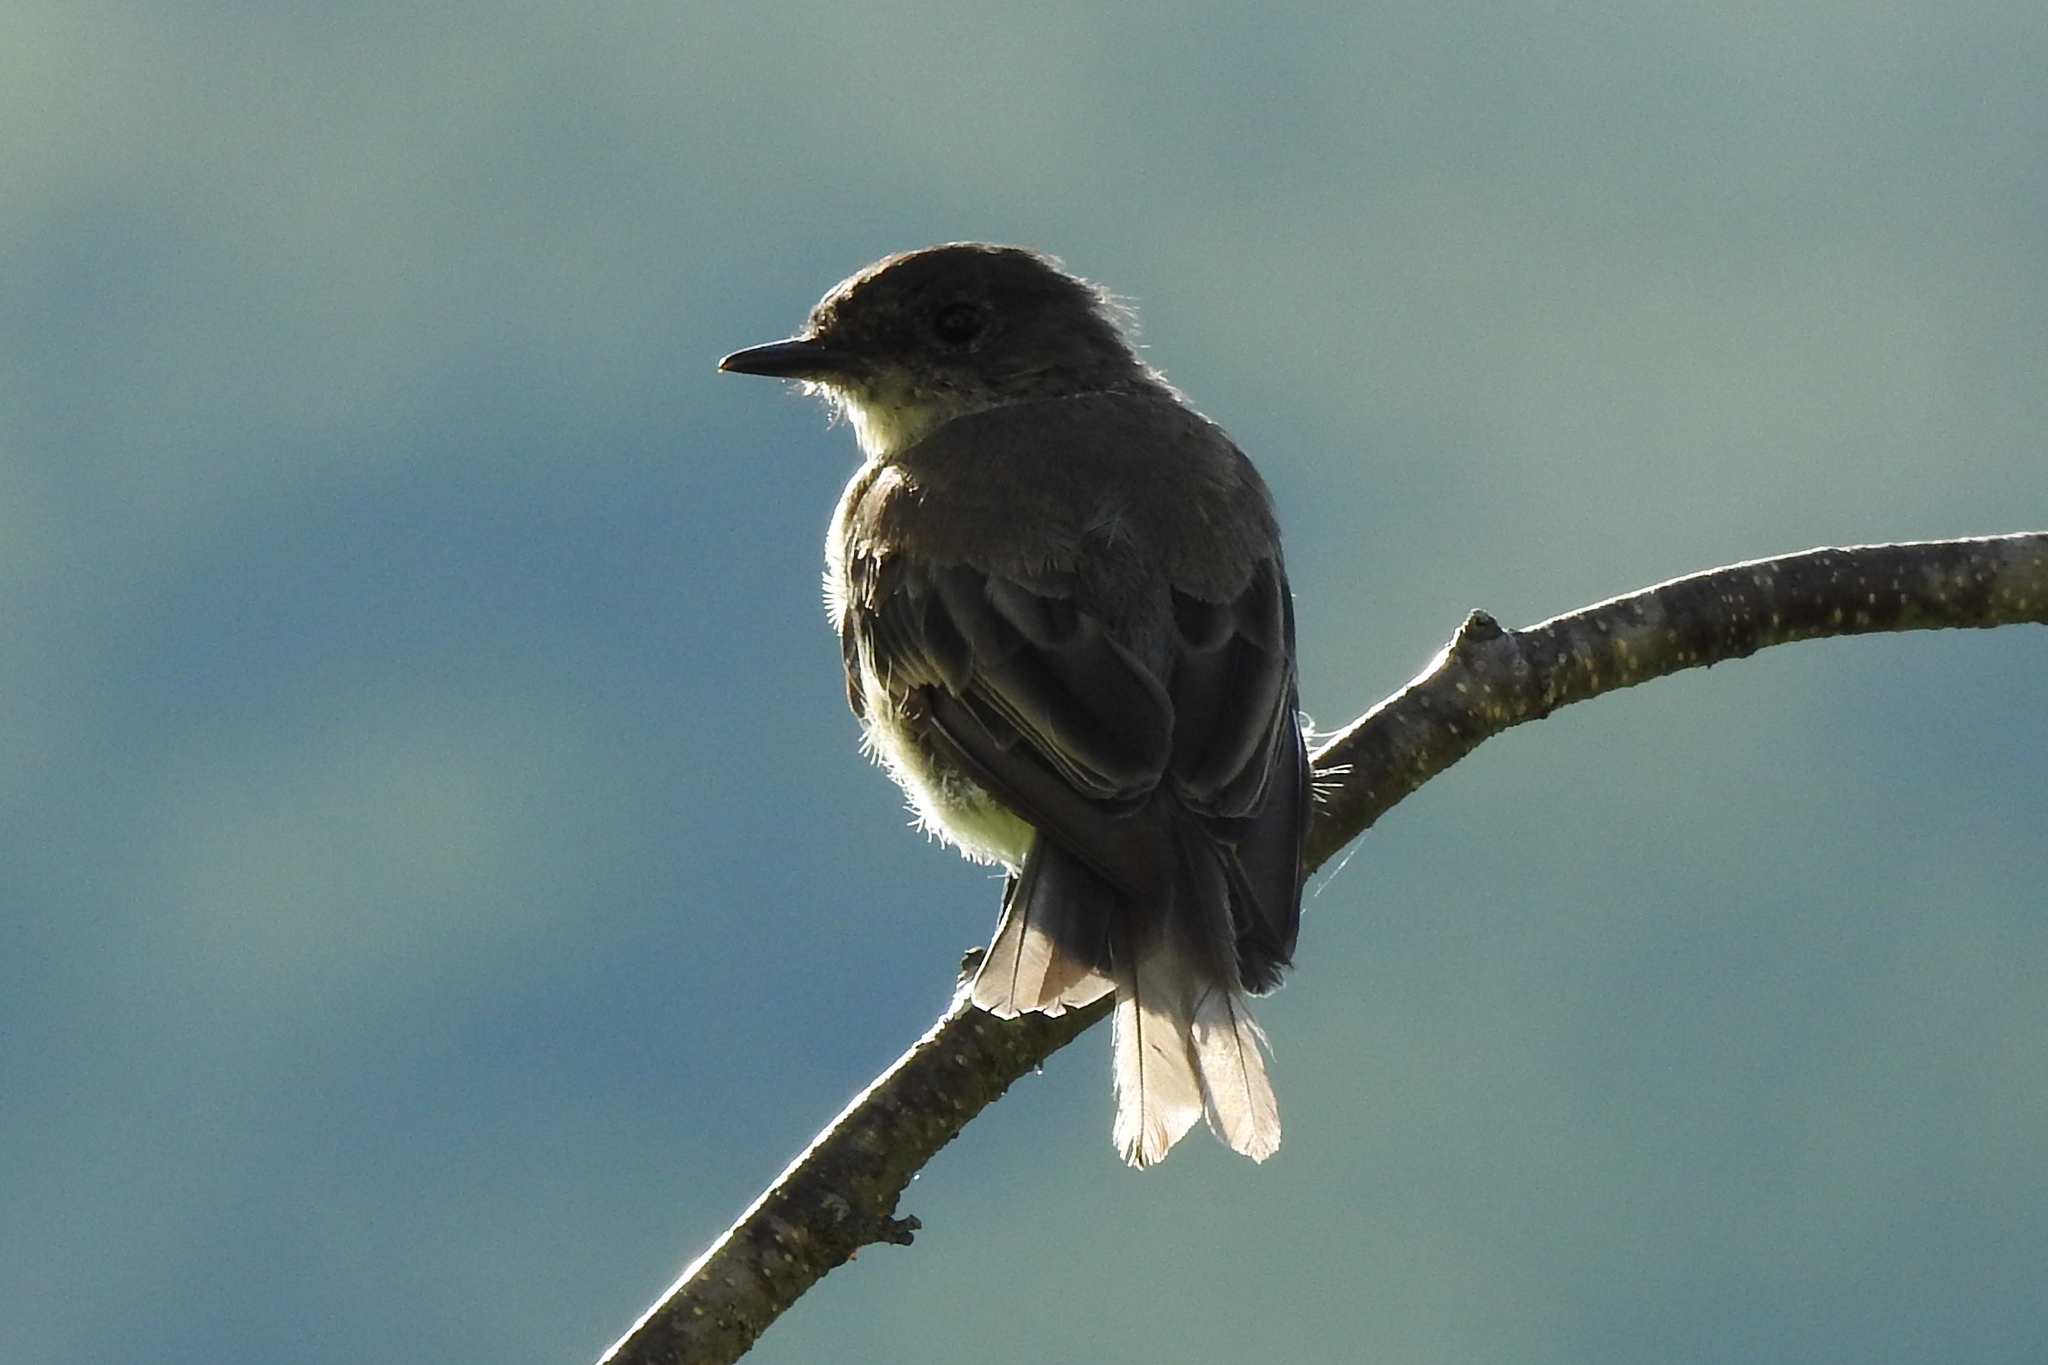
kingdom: Animalia
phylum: Chordata
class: Aves
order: Passeriformes
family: Tyrannidae
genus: Sayornis
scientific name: Sayornis phoebe
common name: Eastern phoebe
